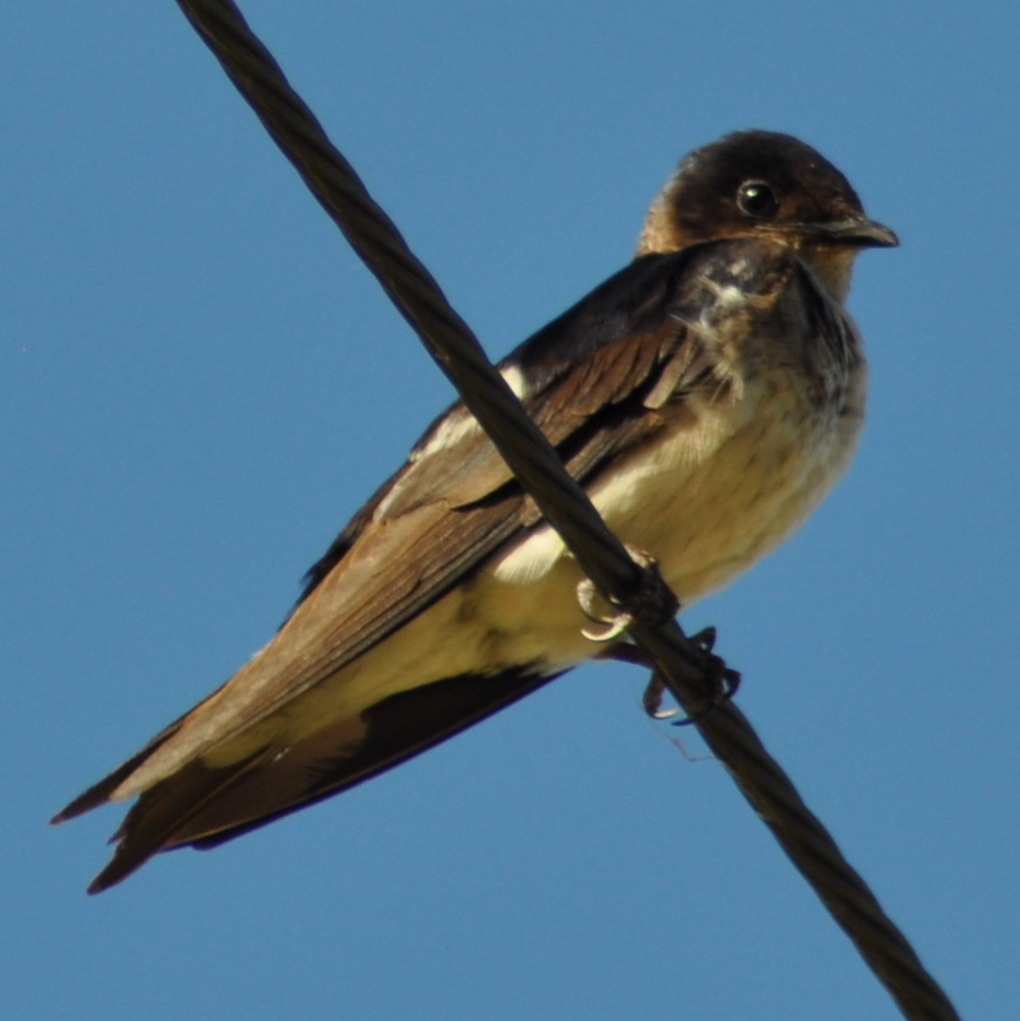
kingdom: Animalia
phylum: Chordata
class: Aves
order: Passeriformes
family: Hirundinidae
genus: Progne
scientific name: Progne chalybea
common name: Grey-breasted martin
